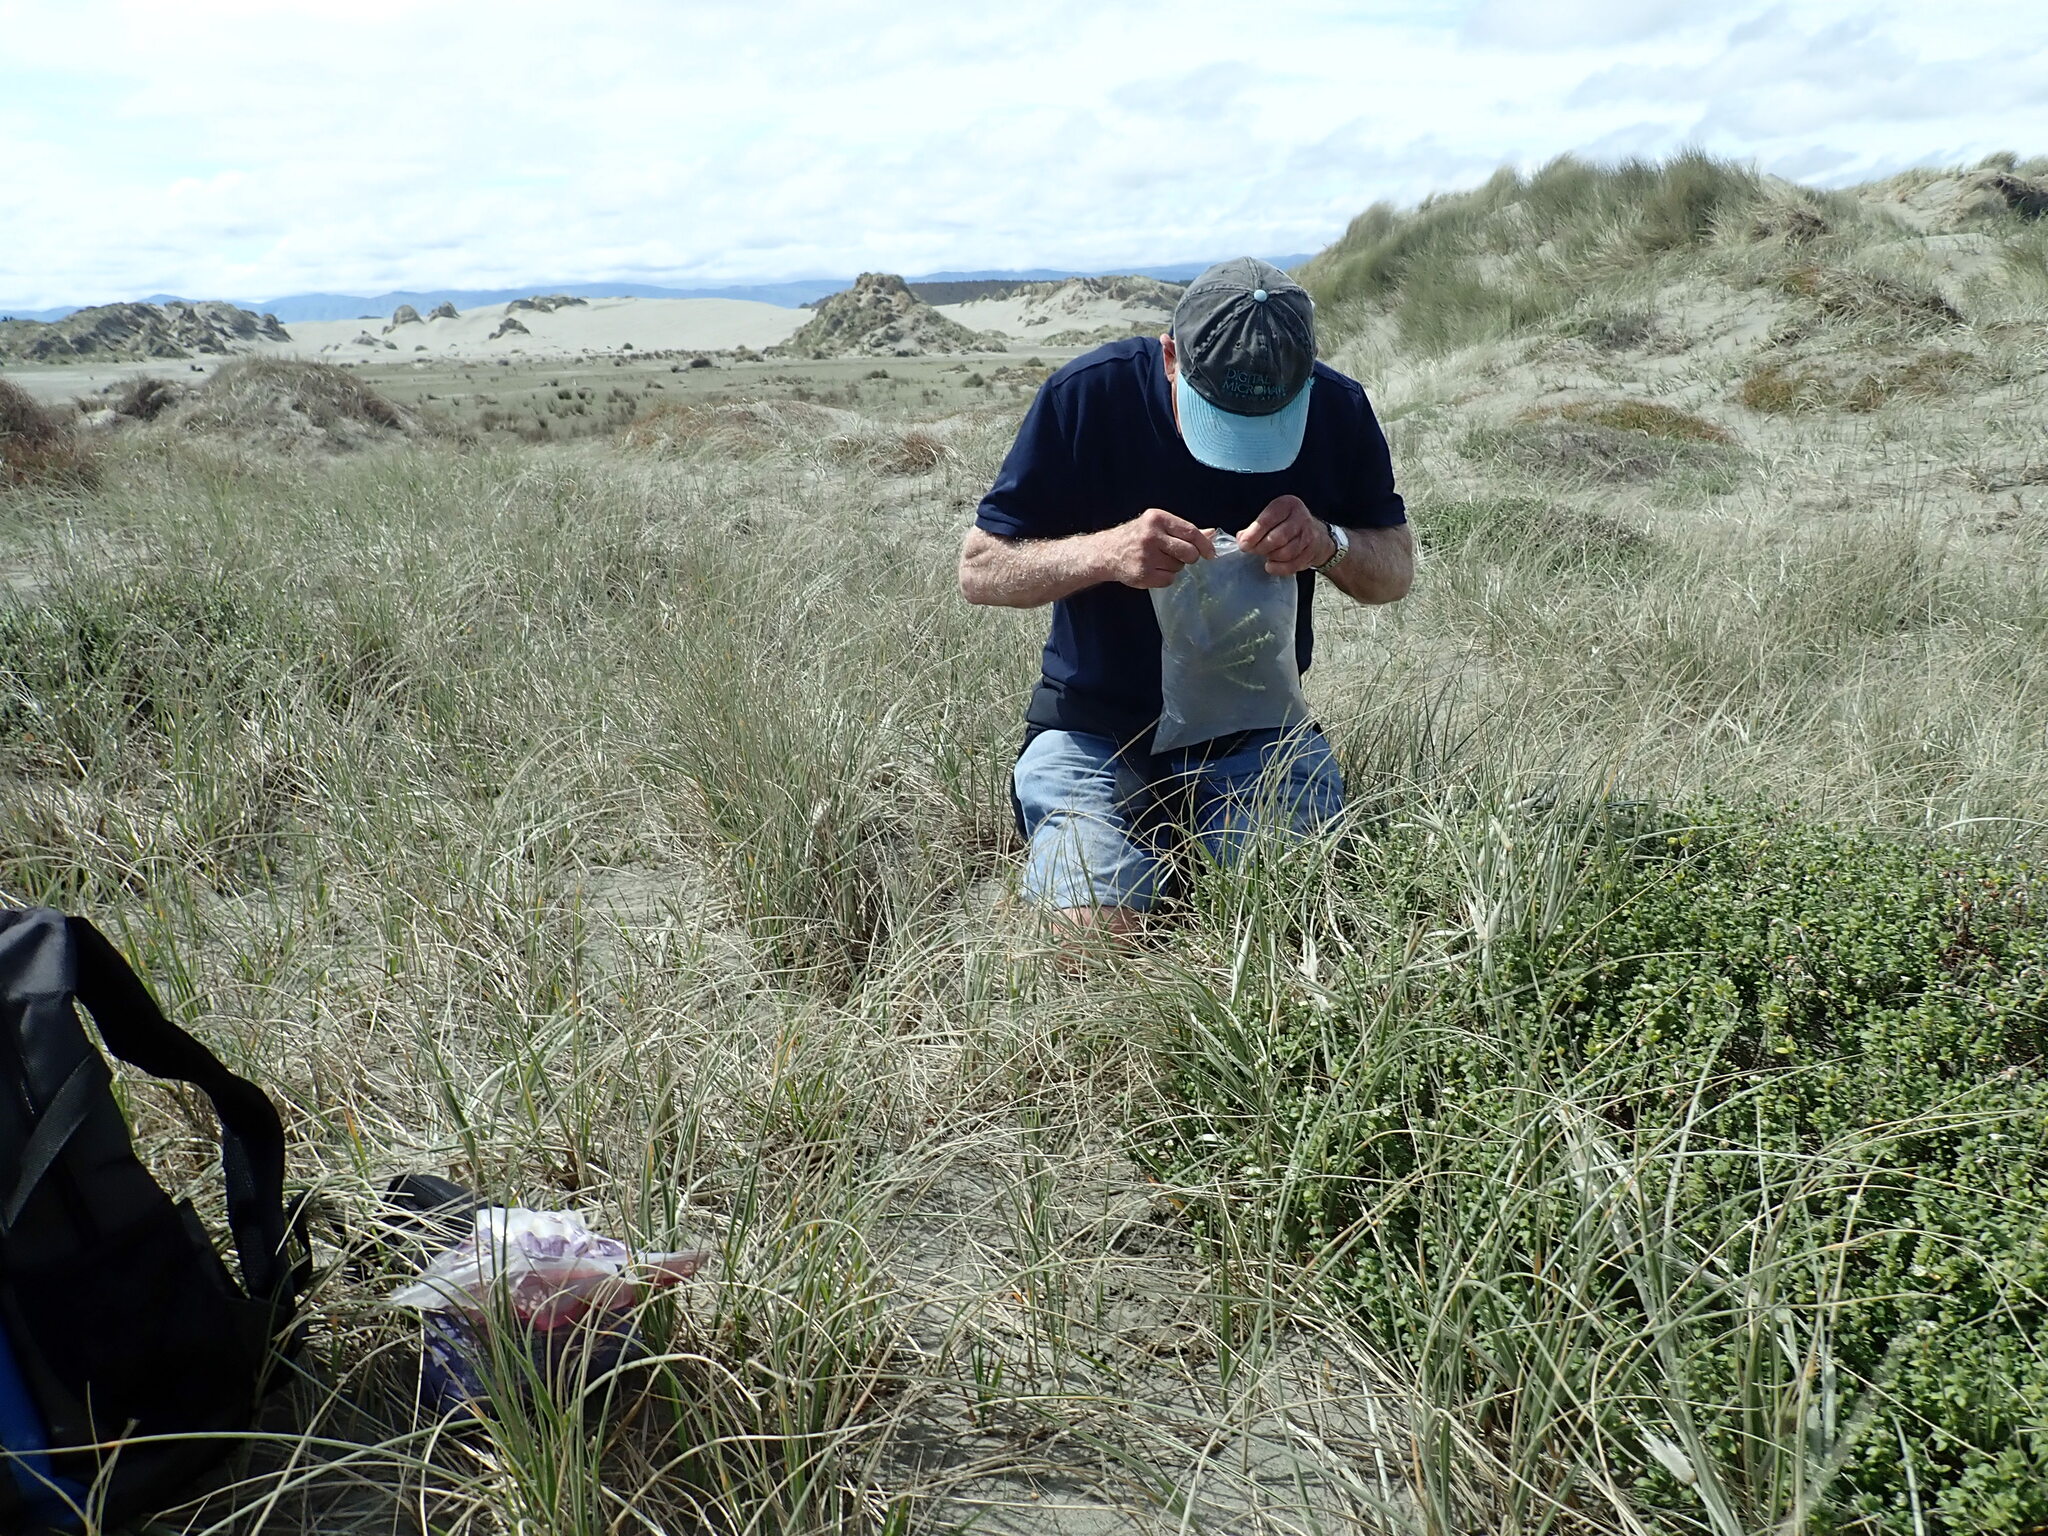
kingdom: Plantae
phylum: Tracheophyta
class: Magnoliopsida
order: Malvales
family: Thymelaeaceae
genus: Pimelea
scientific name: Pimelea villosa
